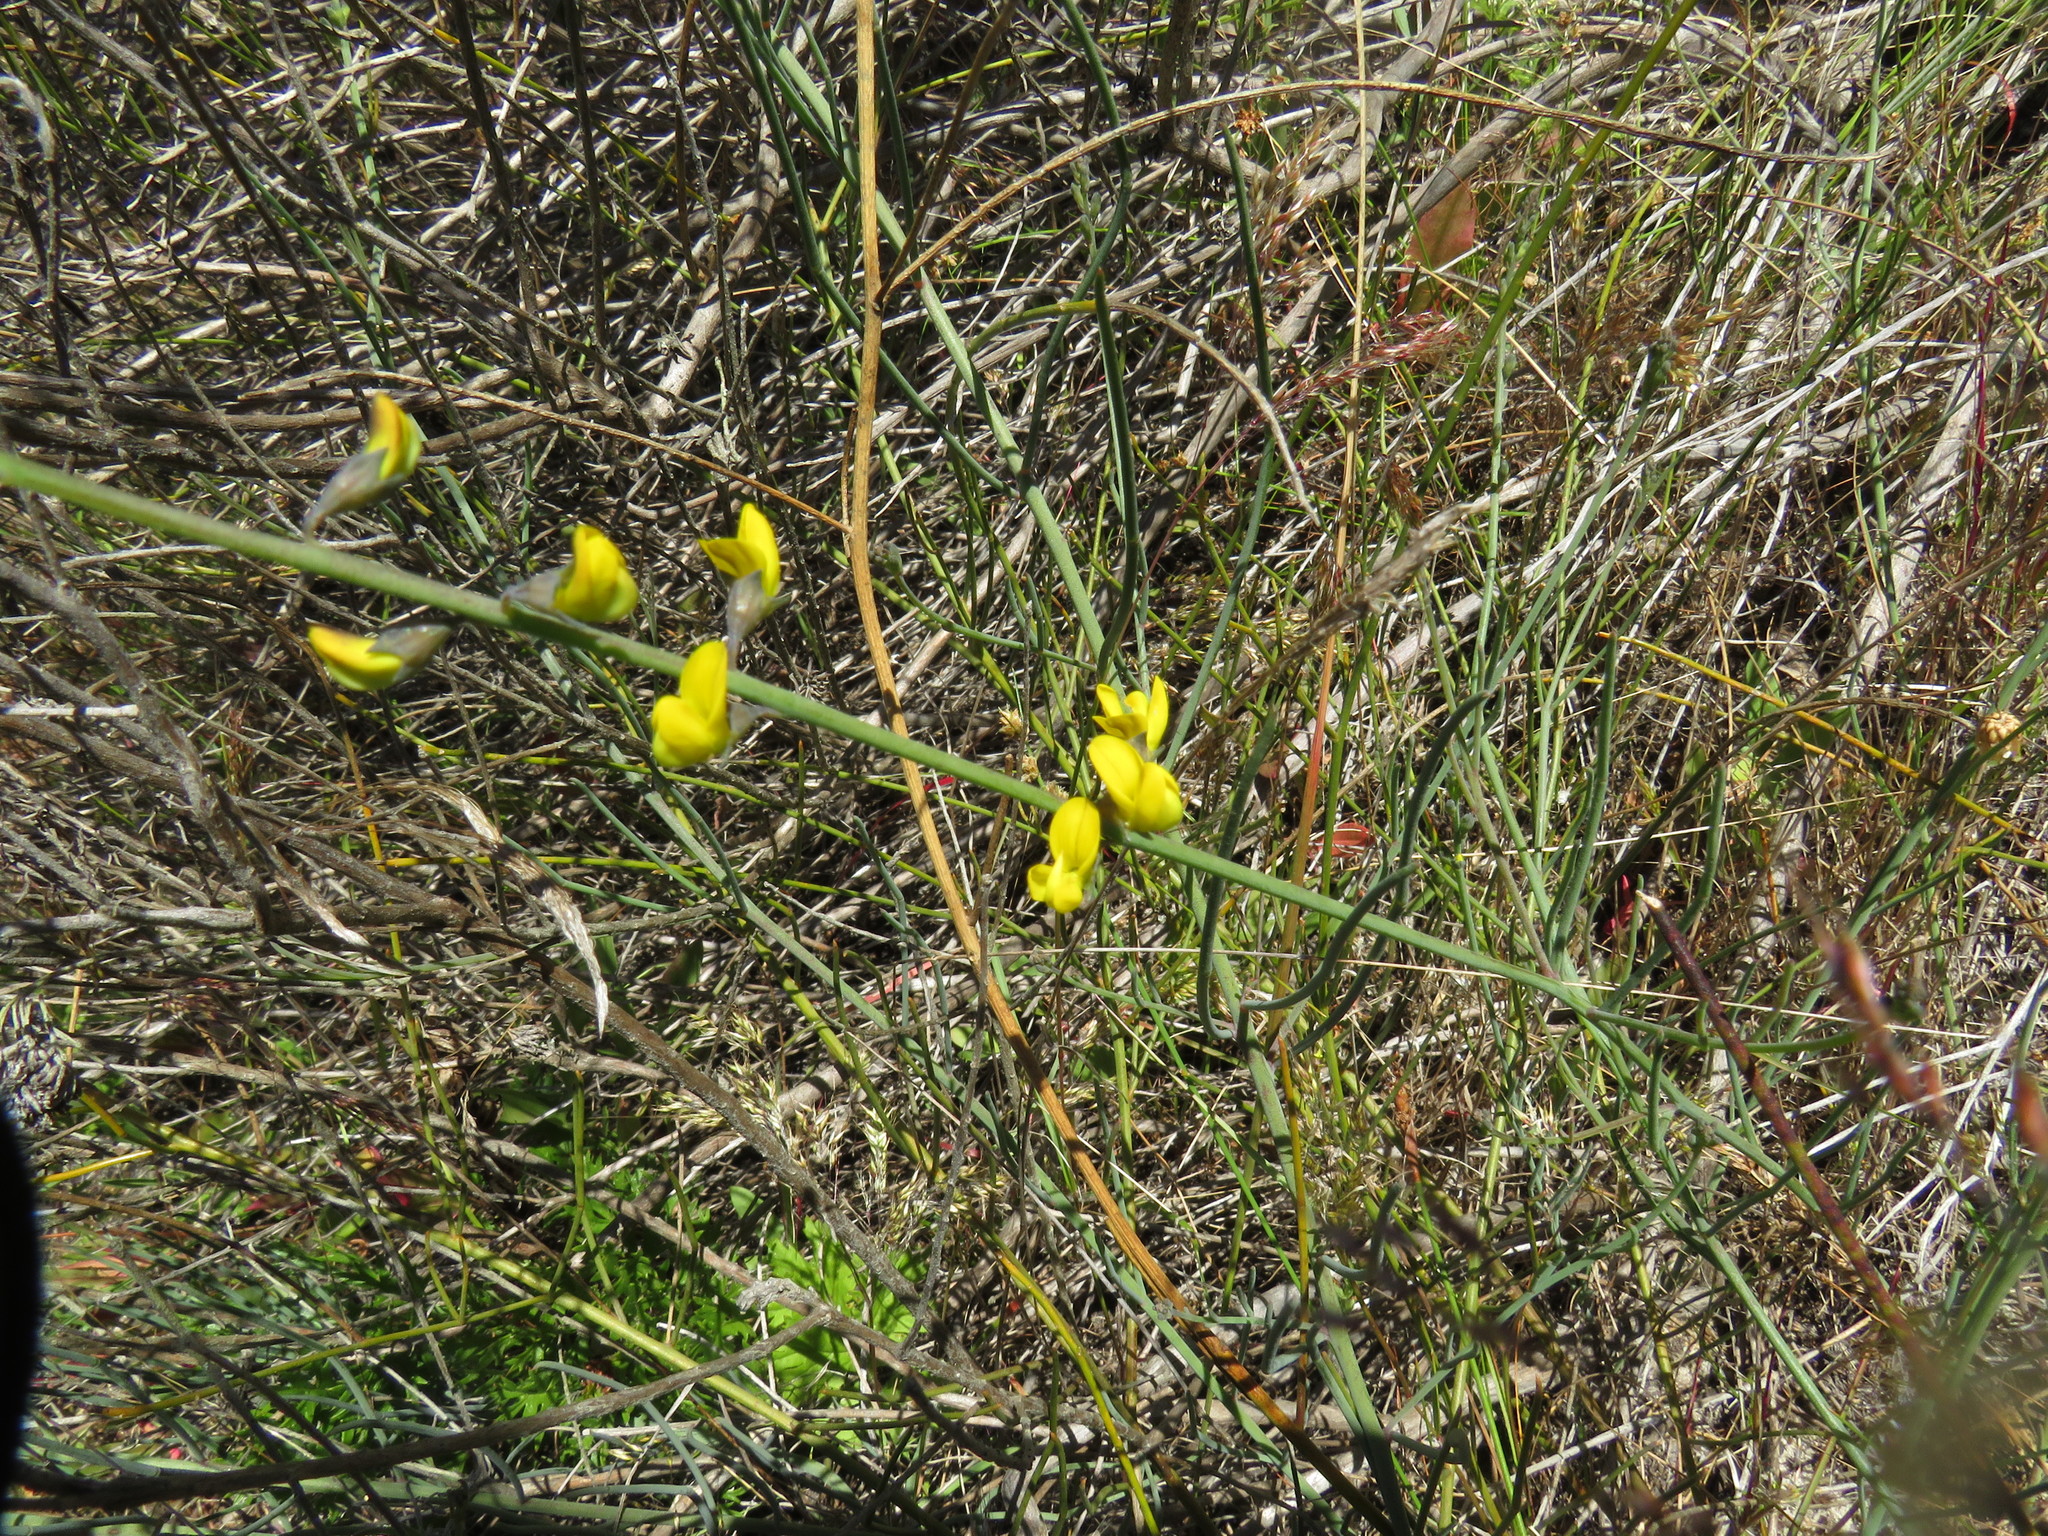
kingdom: Plantae
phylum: Tracheophyta
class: Magnoliopsida
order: Fabales
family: Fabaceae
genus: Lebeckia
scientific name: Lebeckia contaminata
